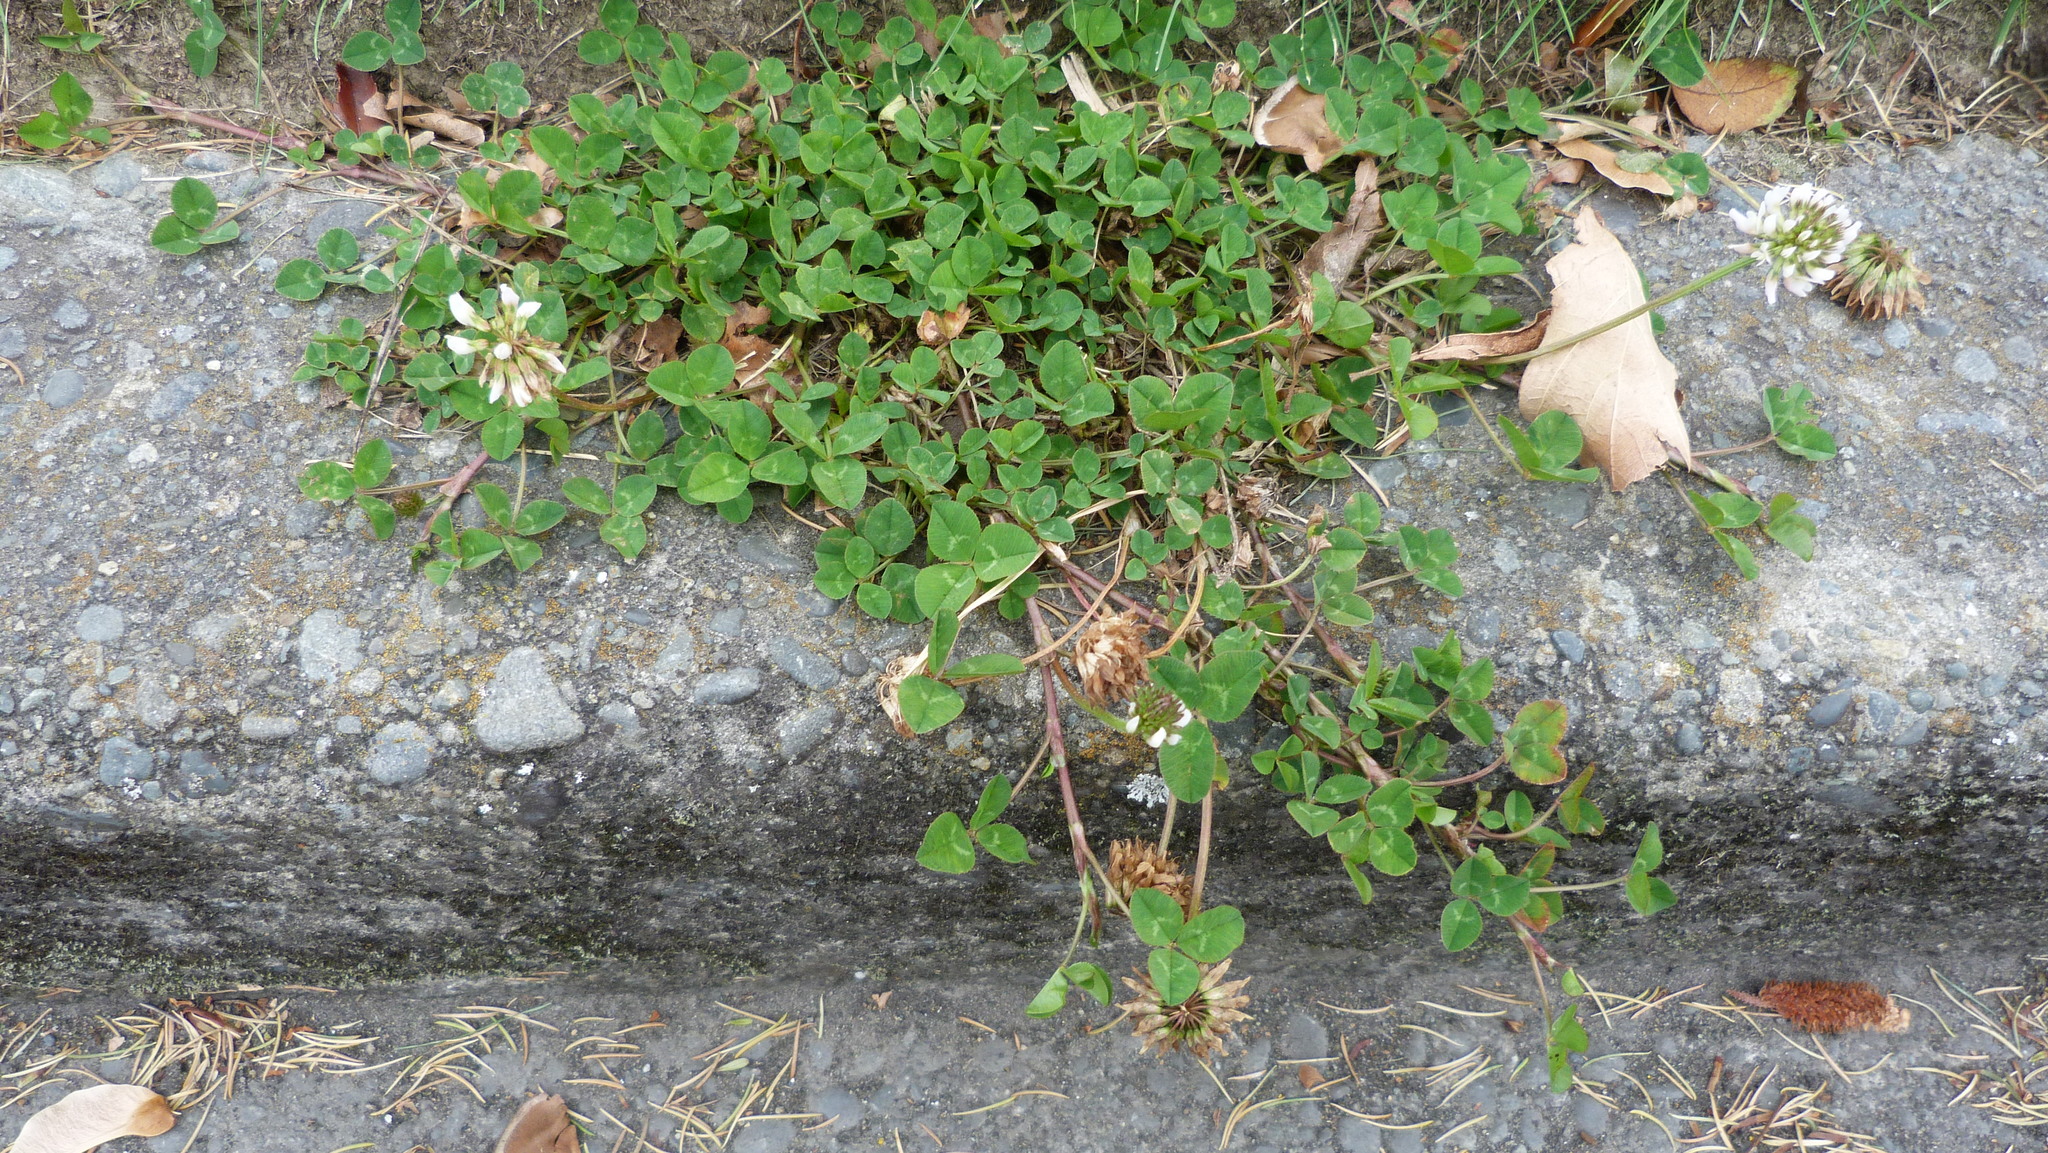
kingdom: Plantae
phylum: Tracheophyta
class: Magnoliopsida
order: Fabales
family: Fabaceae
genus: Trifolium
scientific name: Trifolium repens
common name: White clover
